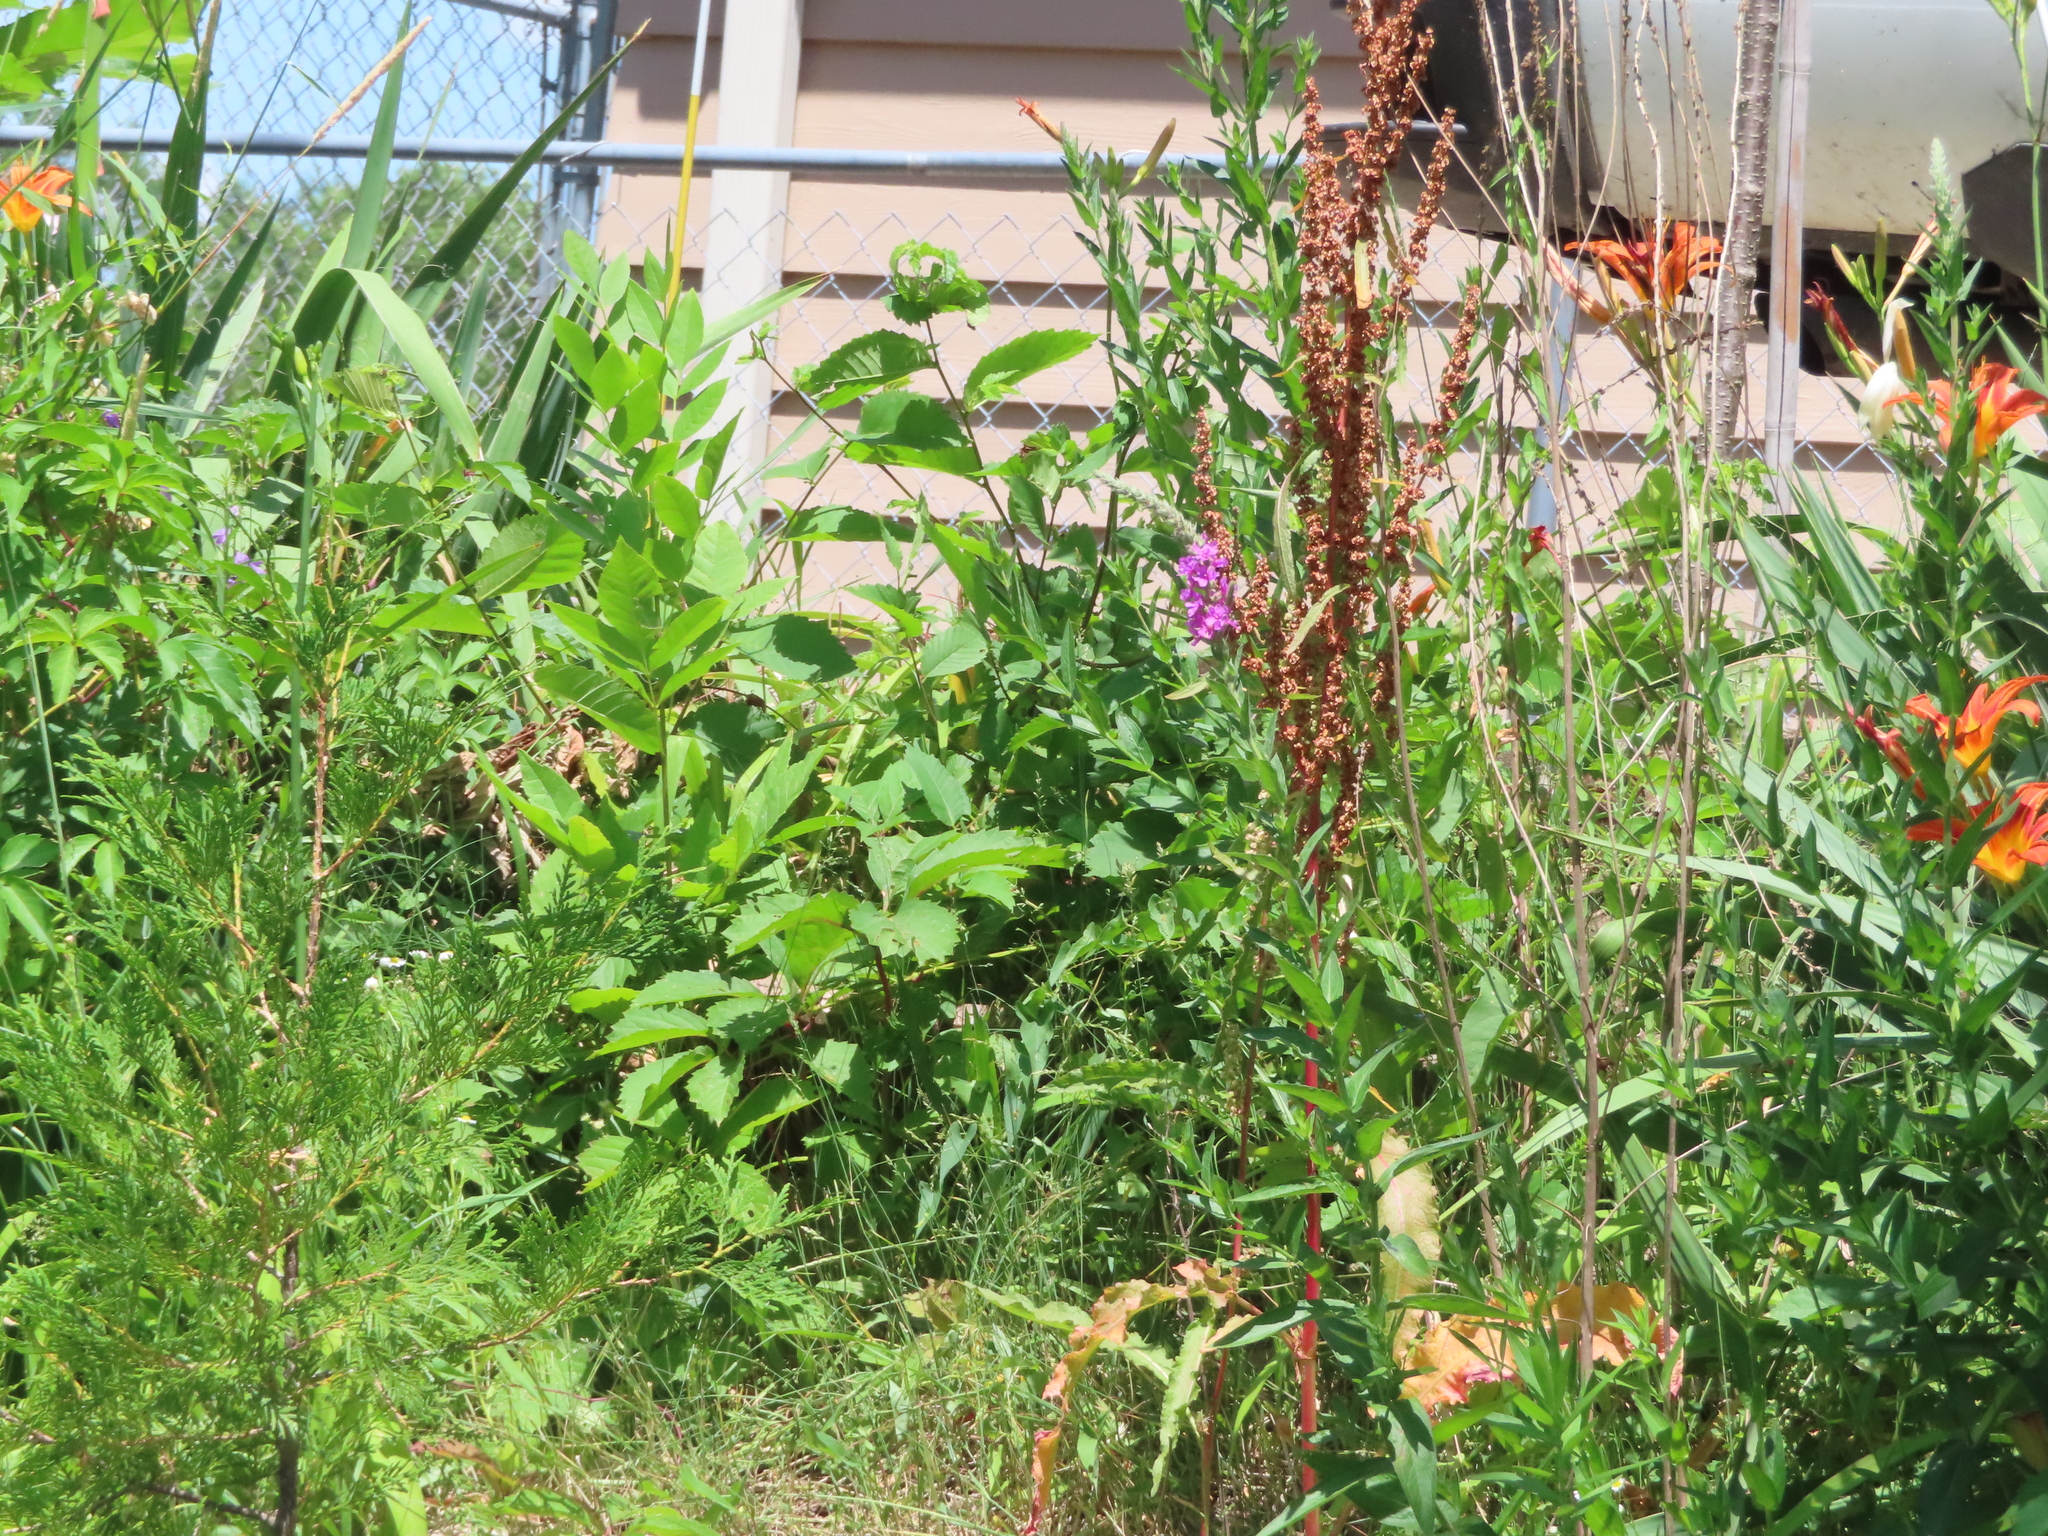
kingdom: Plantae
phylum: Tracheophyta
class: Magnoliopsida
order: Myrtales
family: Lythraceae
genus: Lythrum
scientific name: Lythrum salicaria
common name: Purple loosestrife
